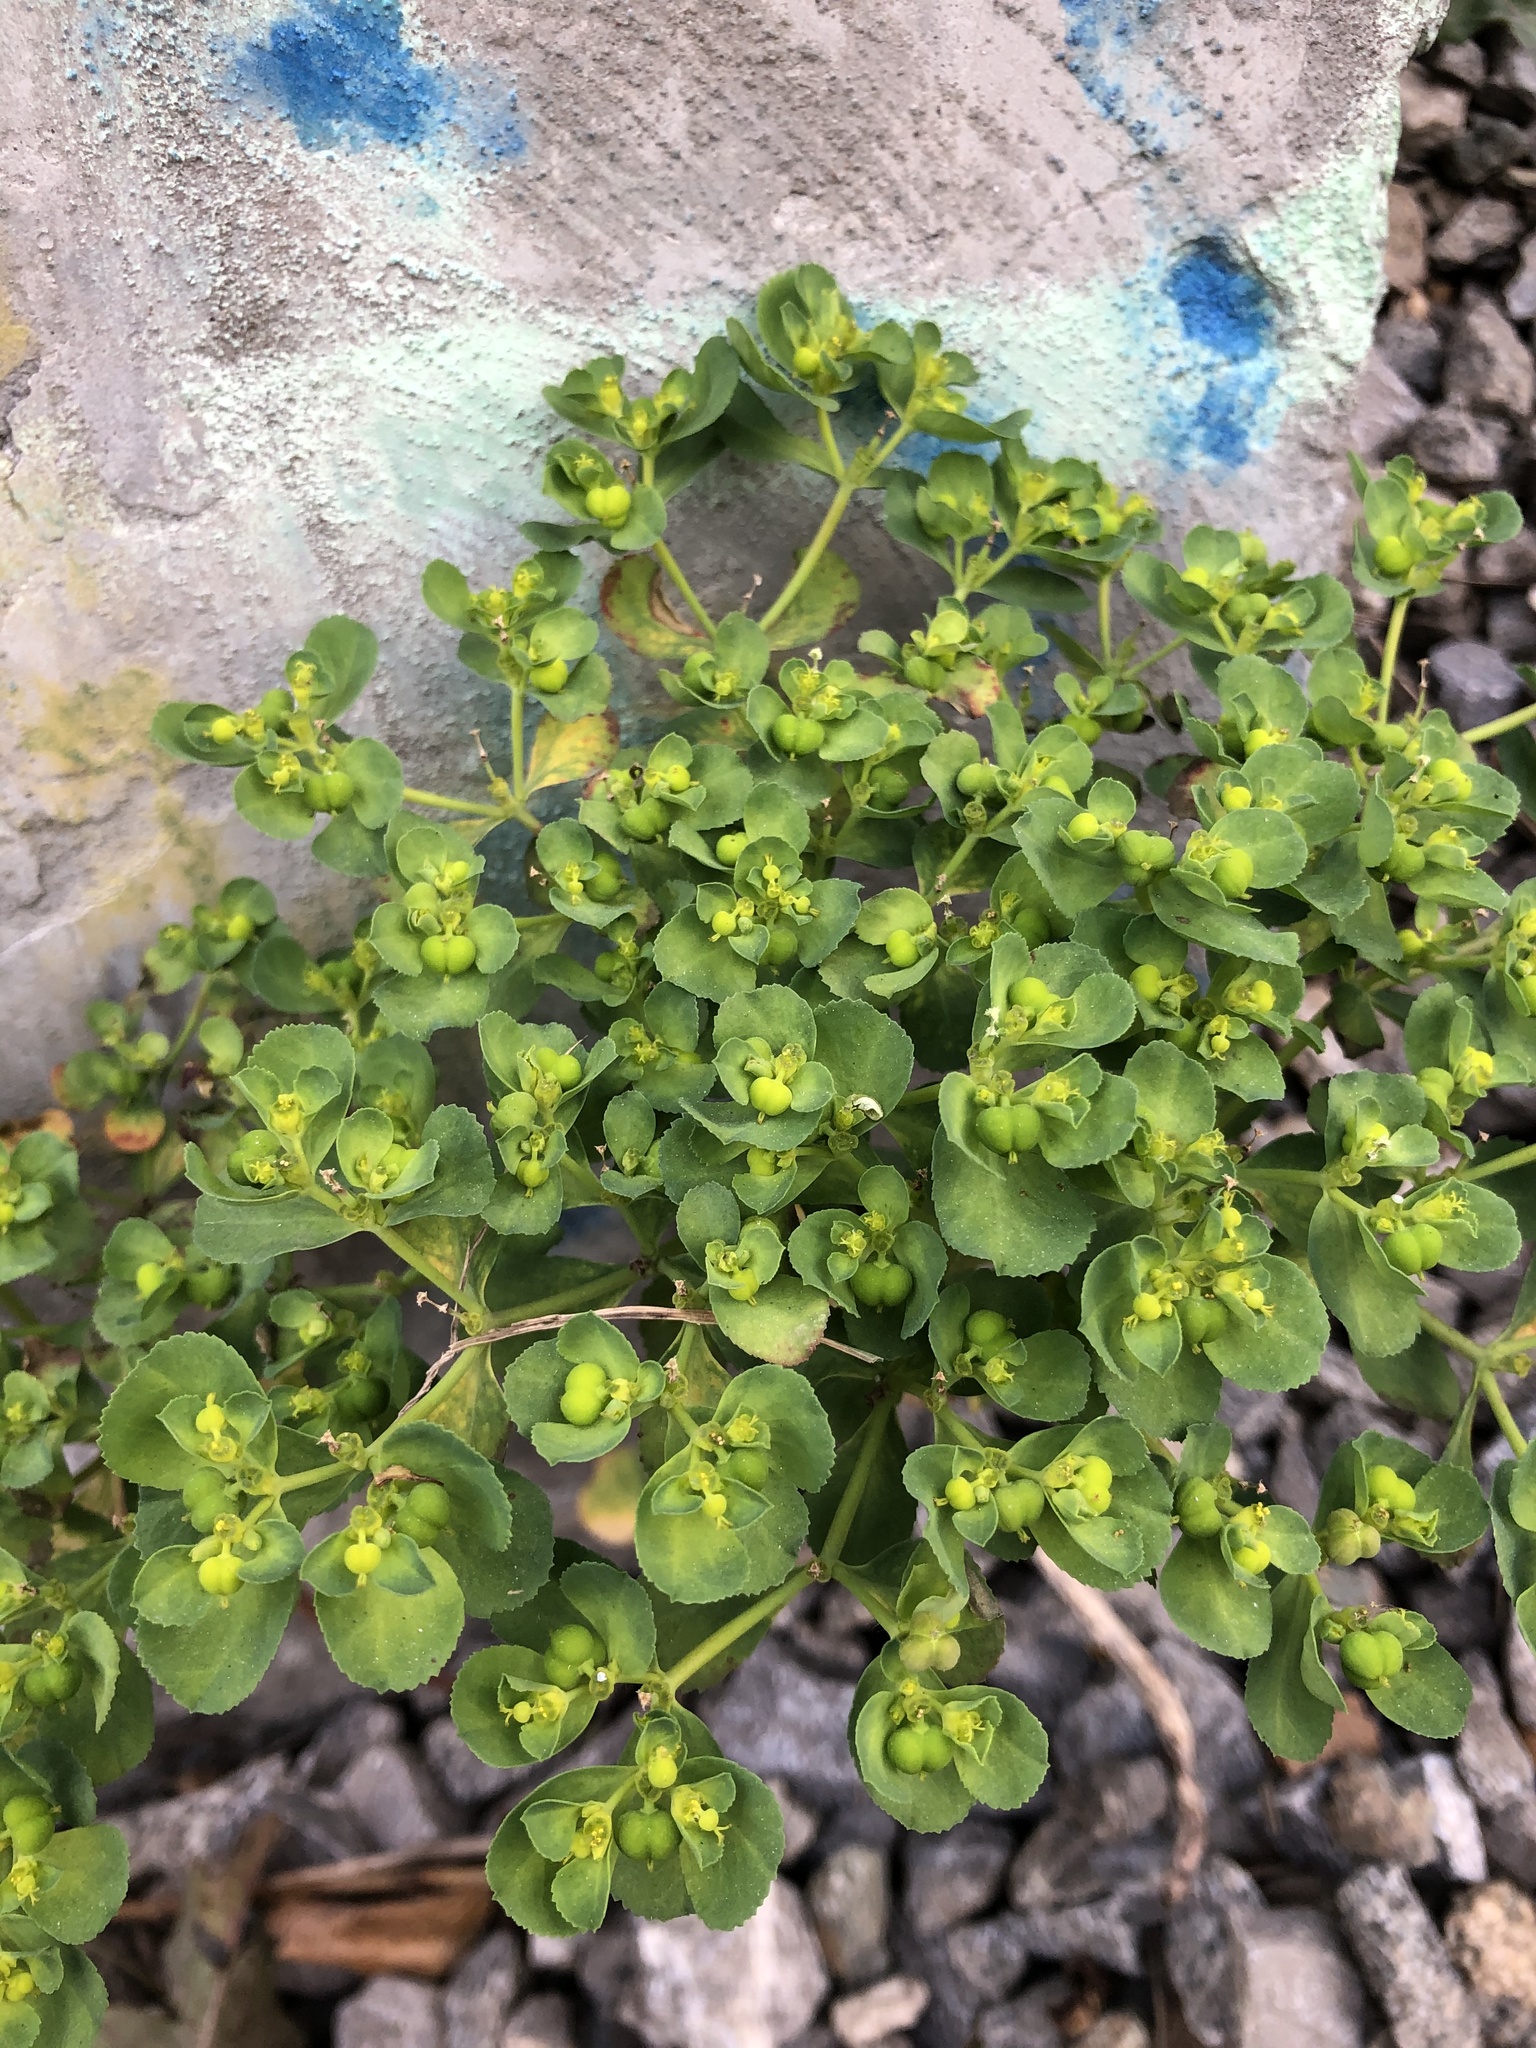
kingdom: Plantae
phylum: Tracheophyta
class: Magnoliopsida
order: Malpighiales
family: Euphorbiaceae
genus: Euphorbia
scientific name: Euphorbia helioscopia
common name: Sun spurge
